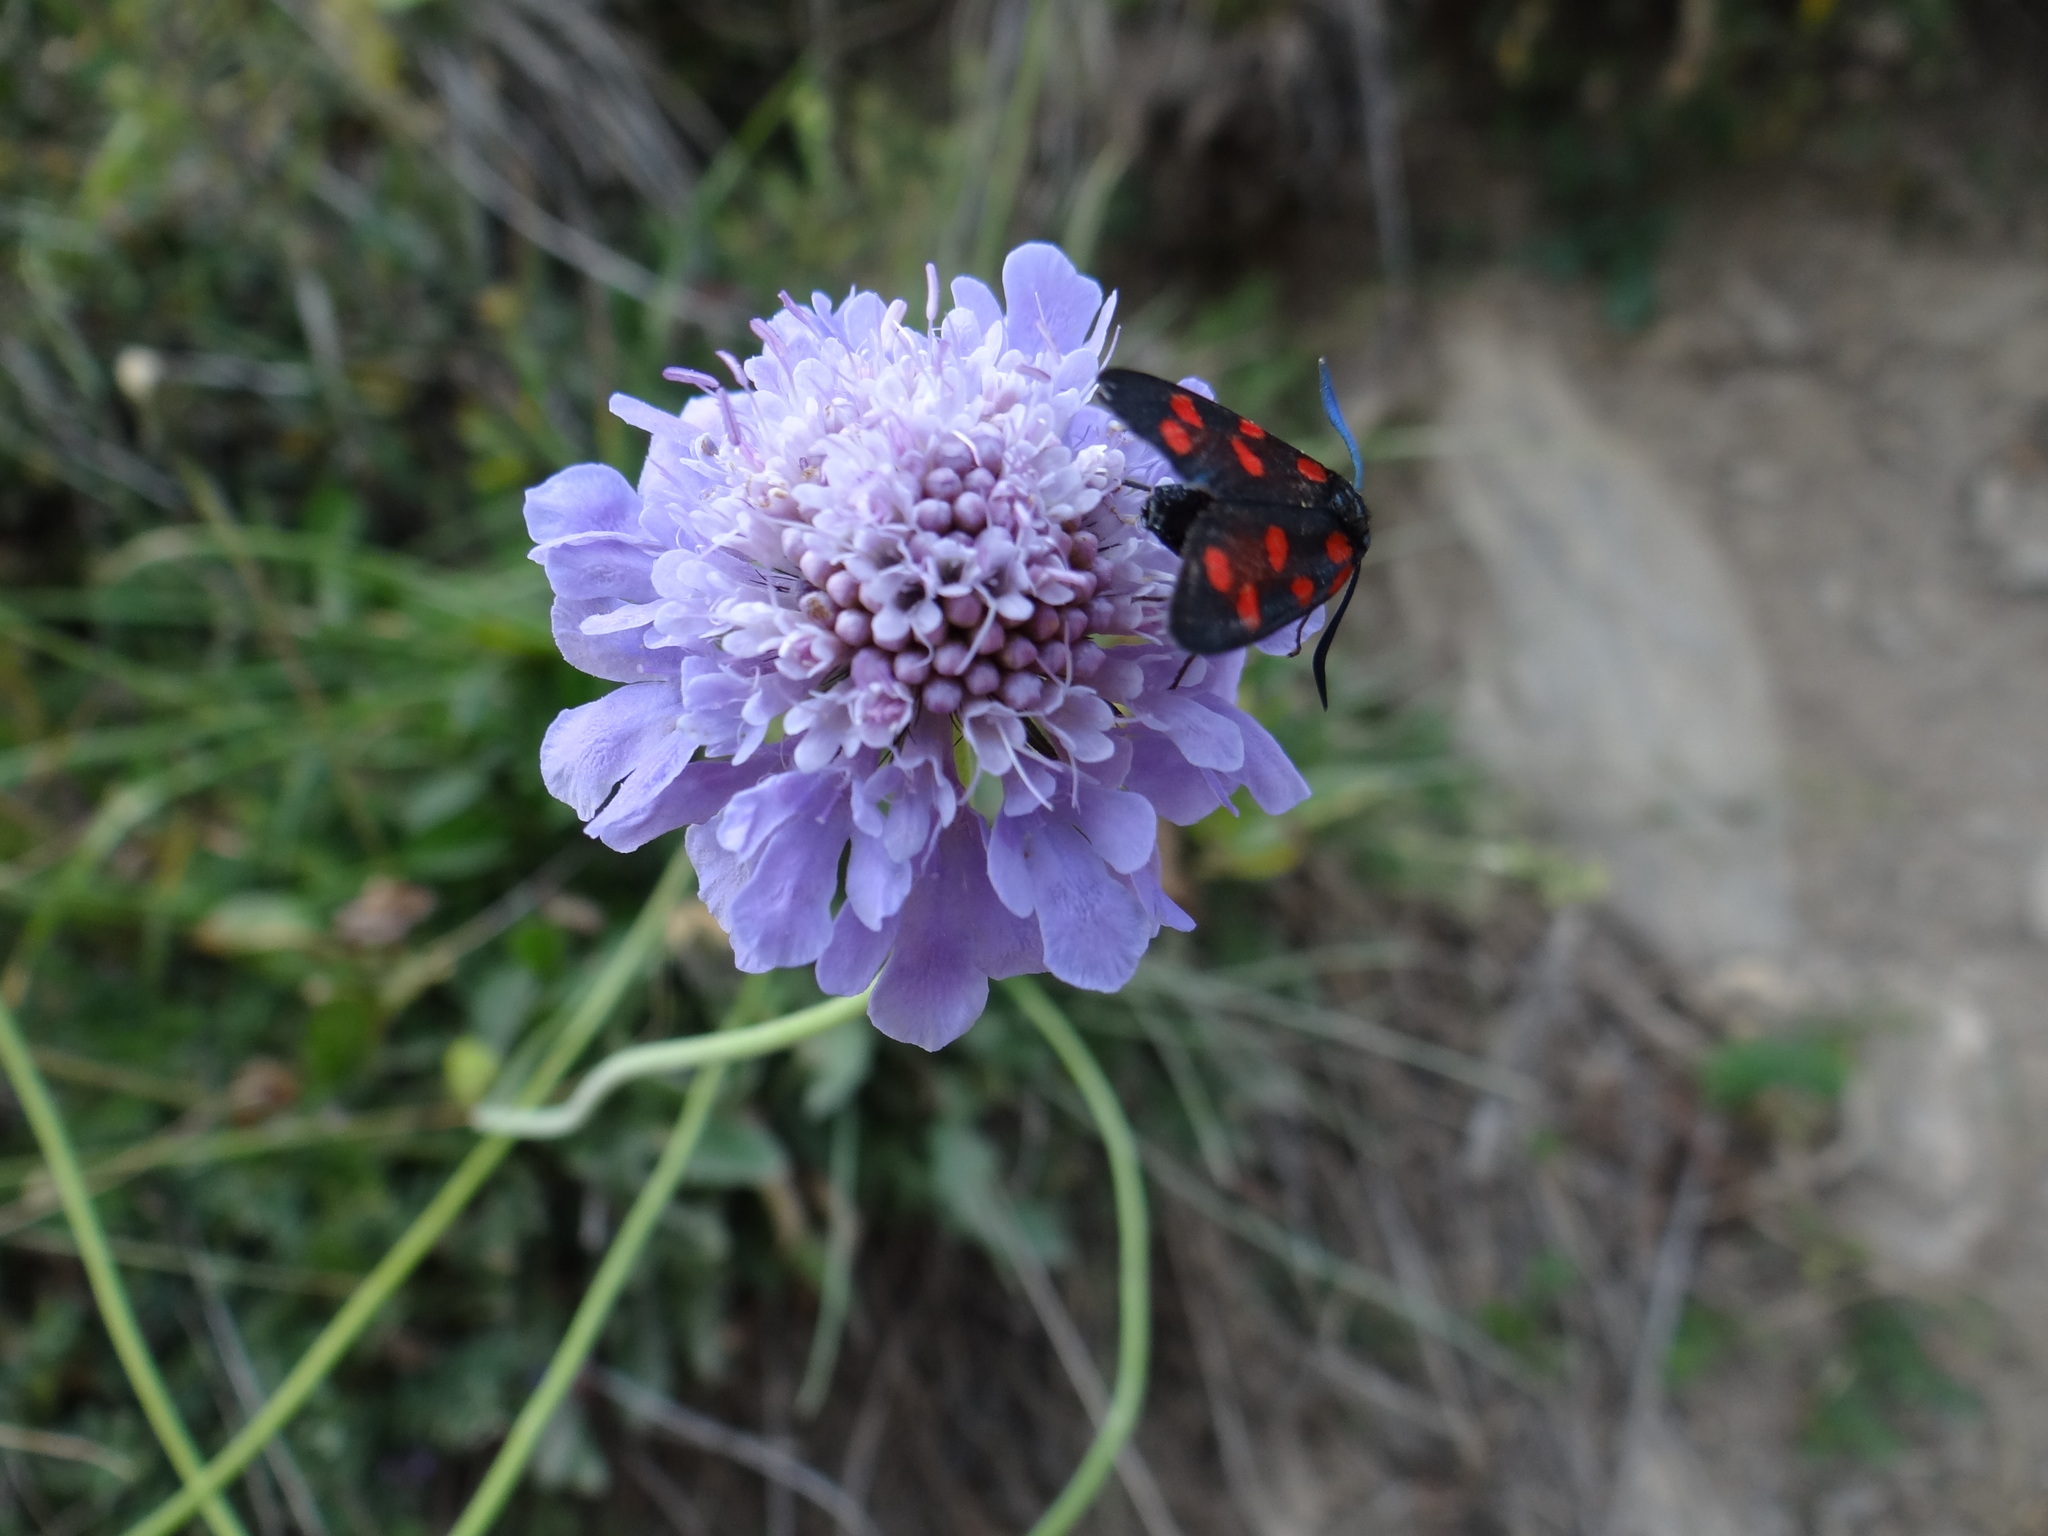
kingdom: Animalia
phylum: Arthropoda
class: Insecta
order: Lepidoptera
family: Zygaenidae
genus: Zygaena
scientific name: Zygaena transalpina
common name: Southern six spot burnet
